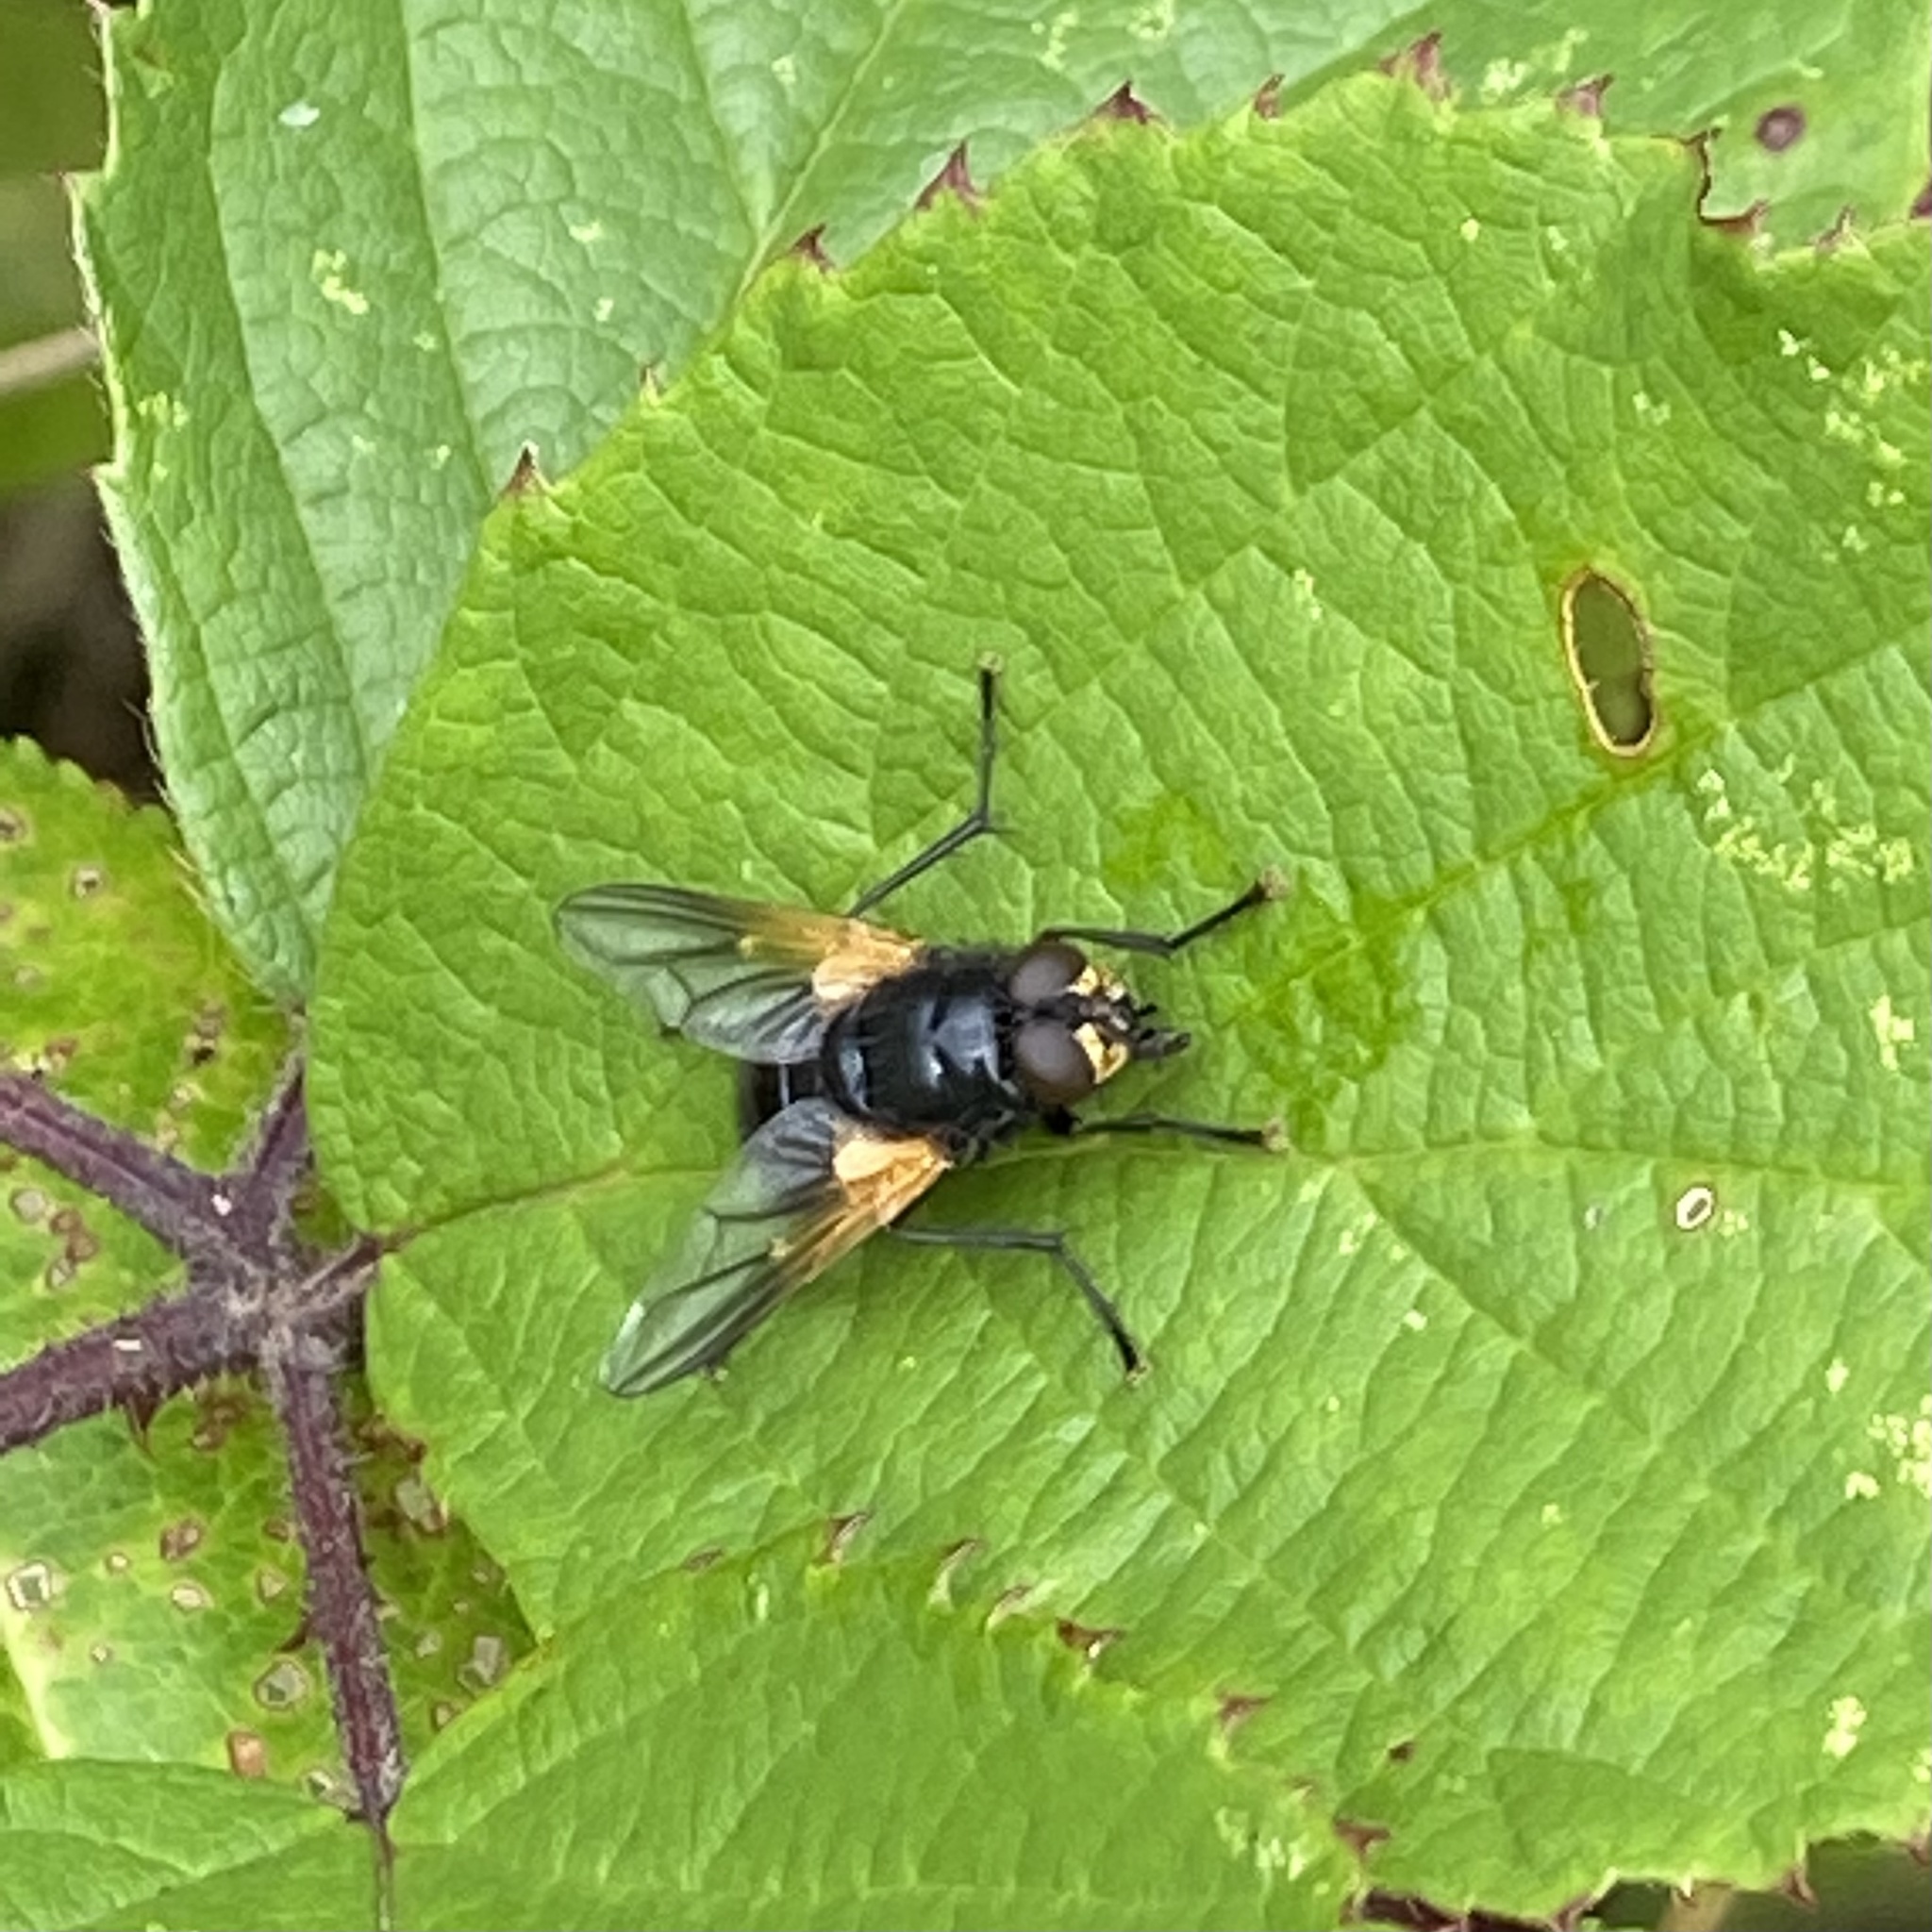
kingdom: Animalia
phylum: Arthropoda
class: Insecta
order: Diptera
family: Muscidae
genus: Mesembrina
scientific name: Mesembrina meridiana
